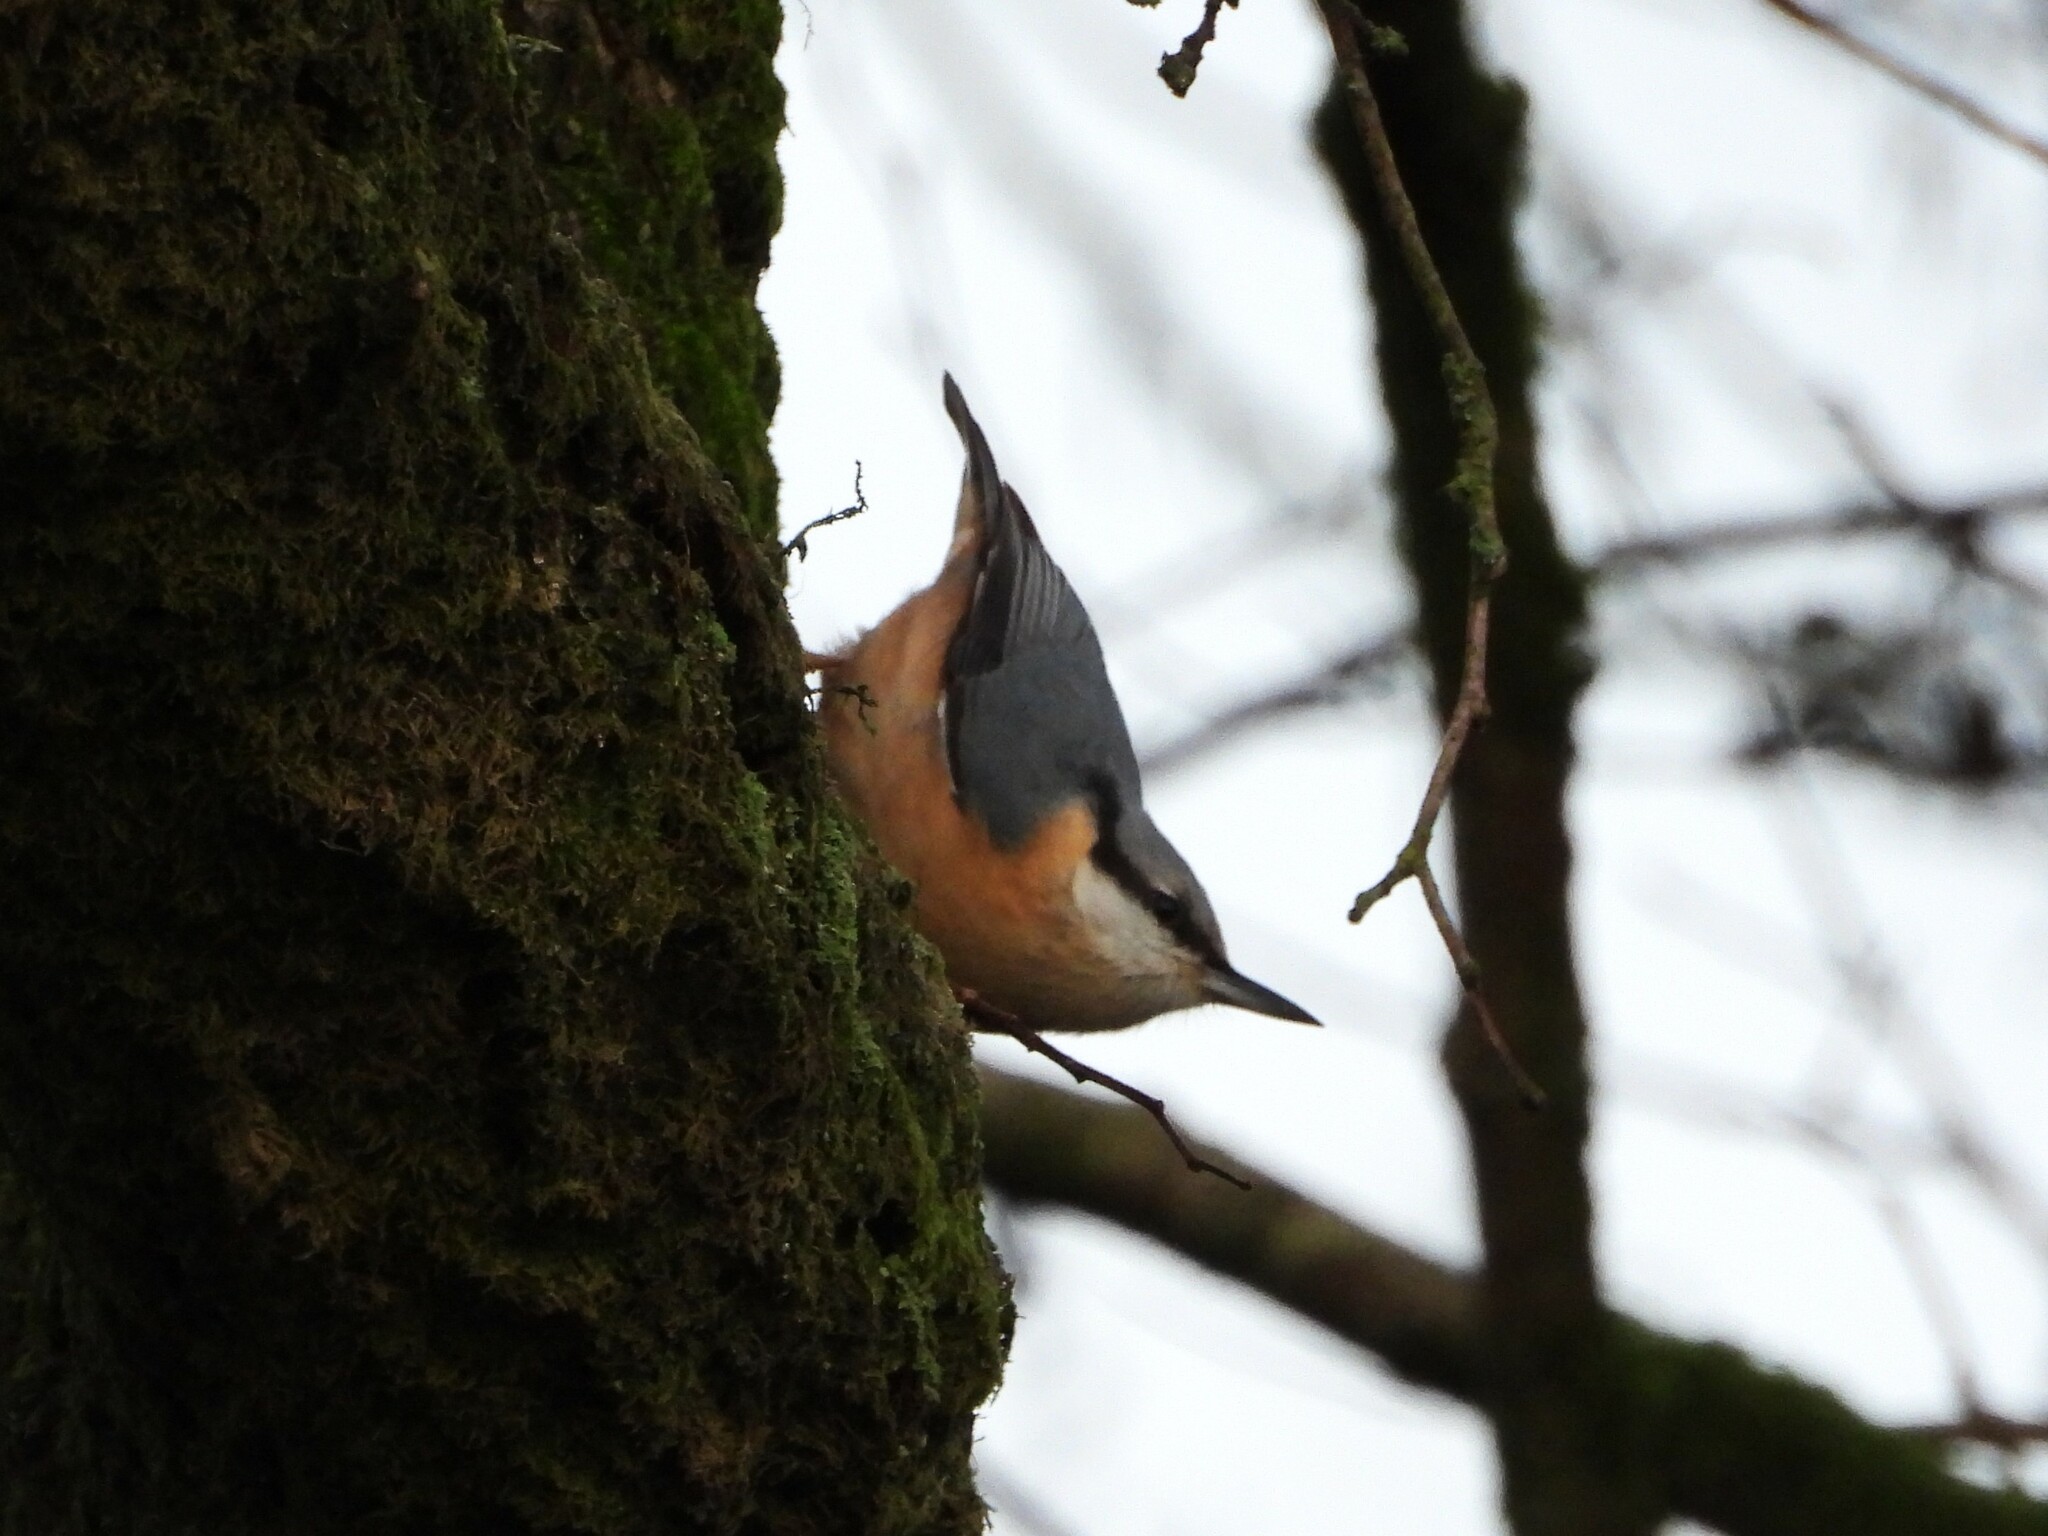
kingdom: Animalia
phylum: Chordata
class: Aves
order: Passeriformes
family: Sittidae
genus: Sitta
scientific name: Sitta europaea
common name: Eurasian nuthatch
